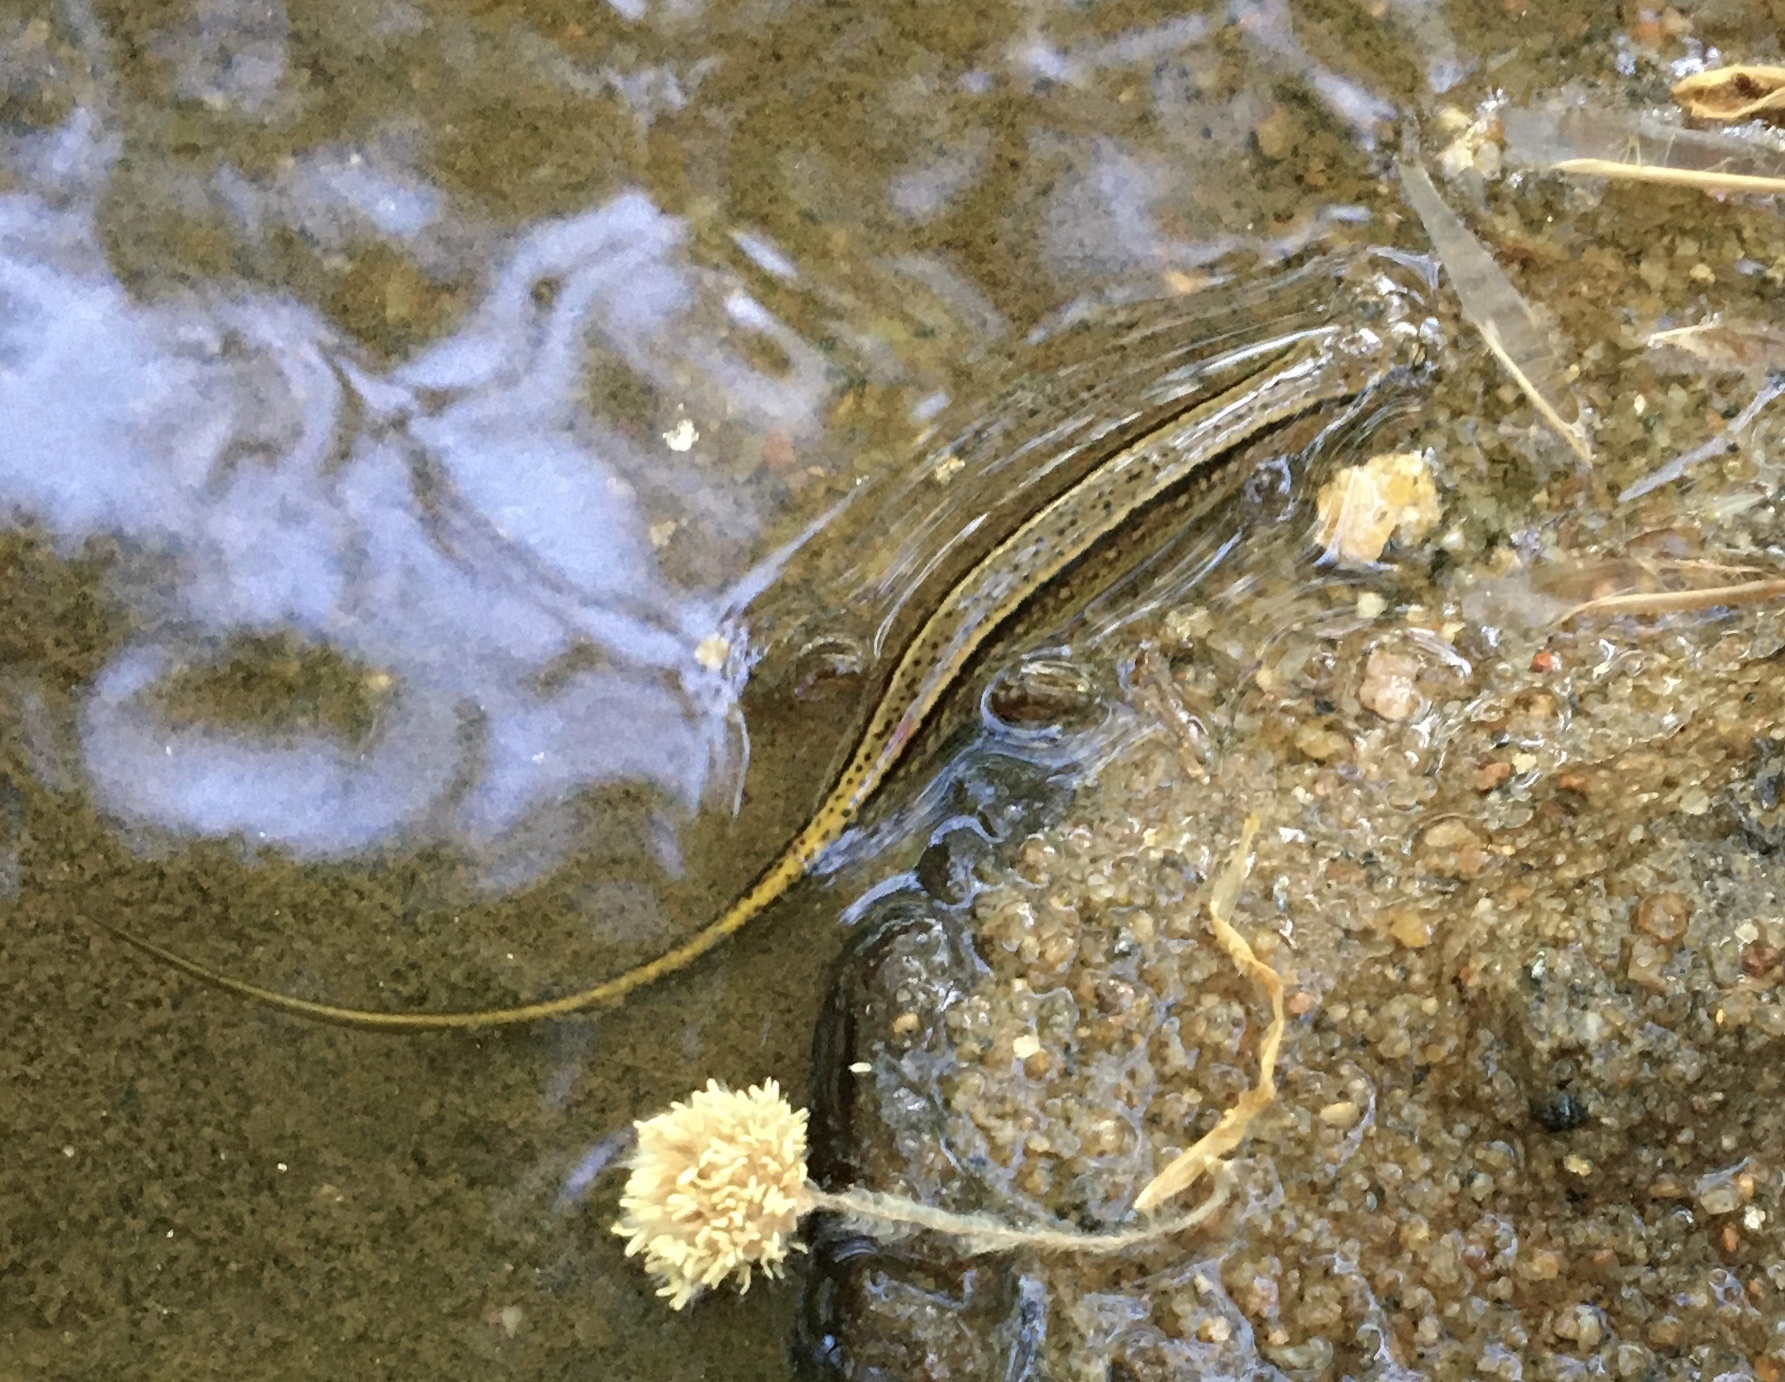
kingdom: Animalia
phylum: Chordata
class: Amphibia
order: Caudata
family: Plethodontidae
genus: Eurycea
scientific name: Eurycea cirrigera
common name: Southern two-lined salamander
